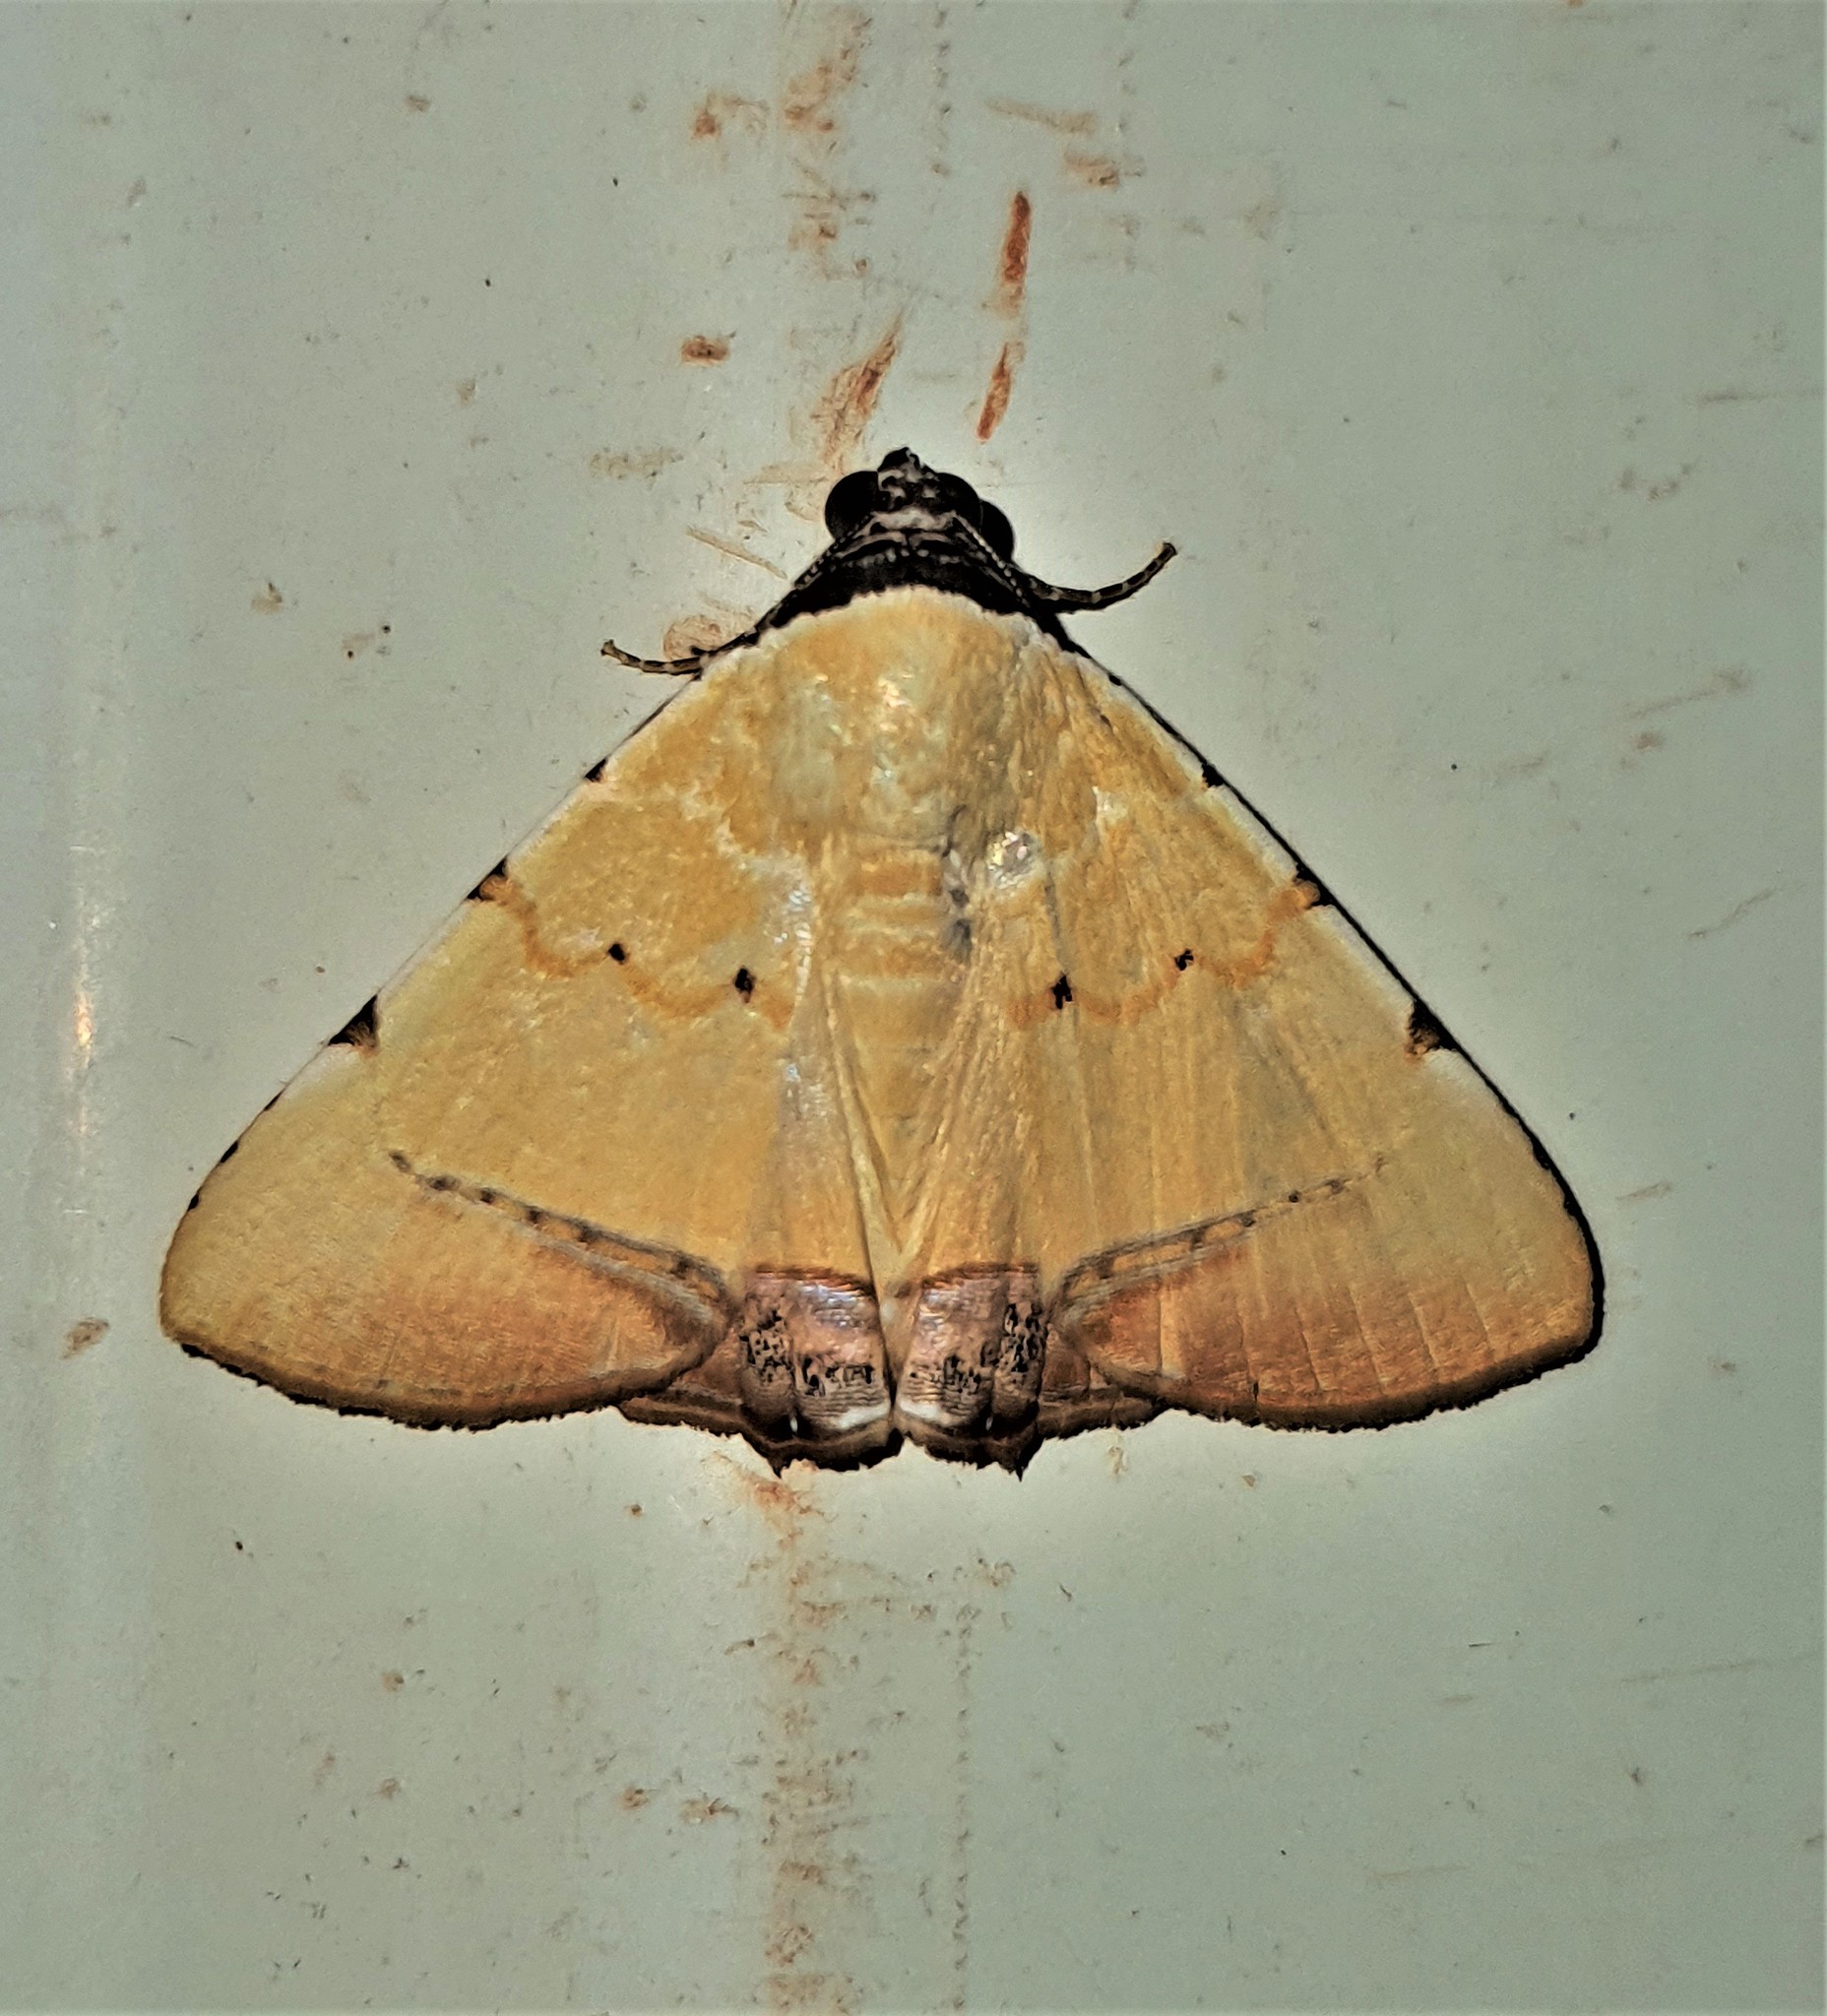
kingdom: Animalia
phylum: Arthropoda
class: Insecta
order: Lepidoptera
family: Erebidae
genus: Eulepidotis
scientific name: Eulepidotis modestula
